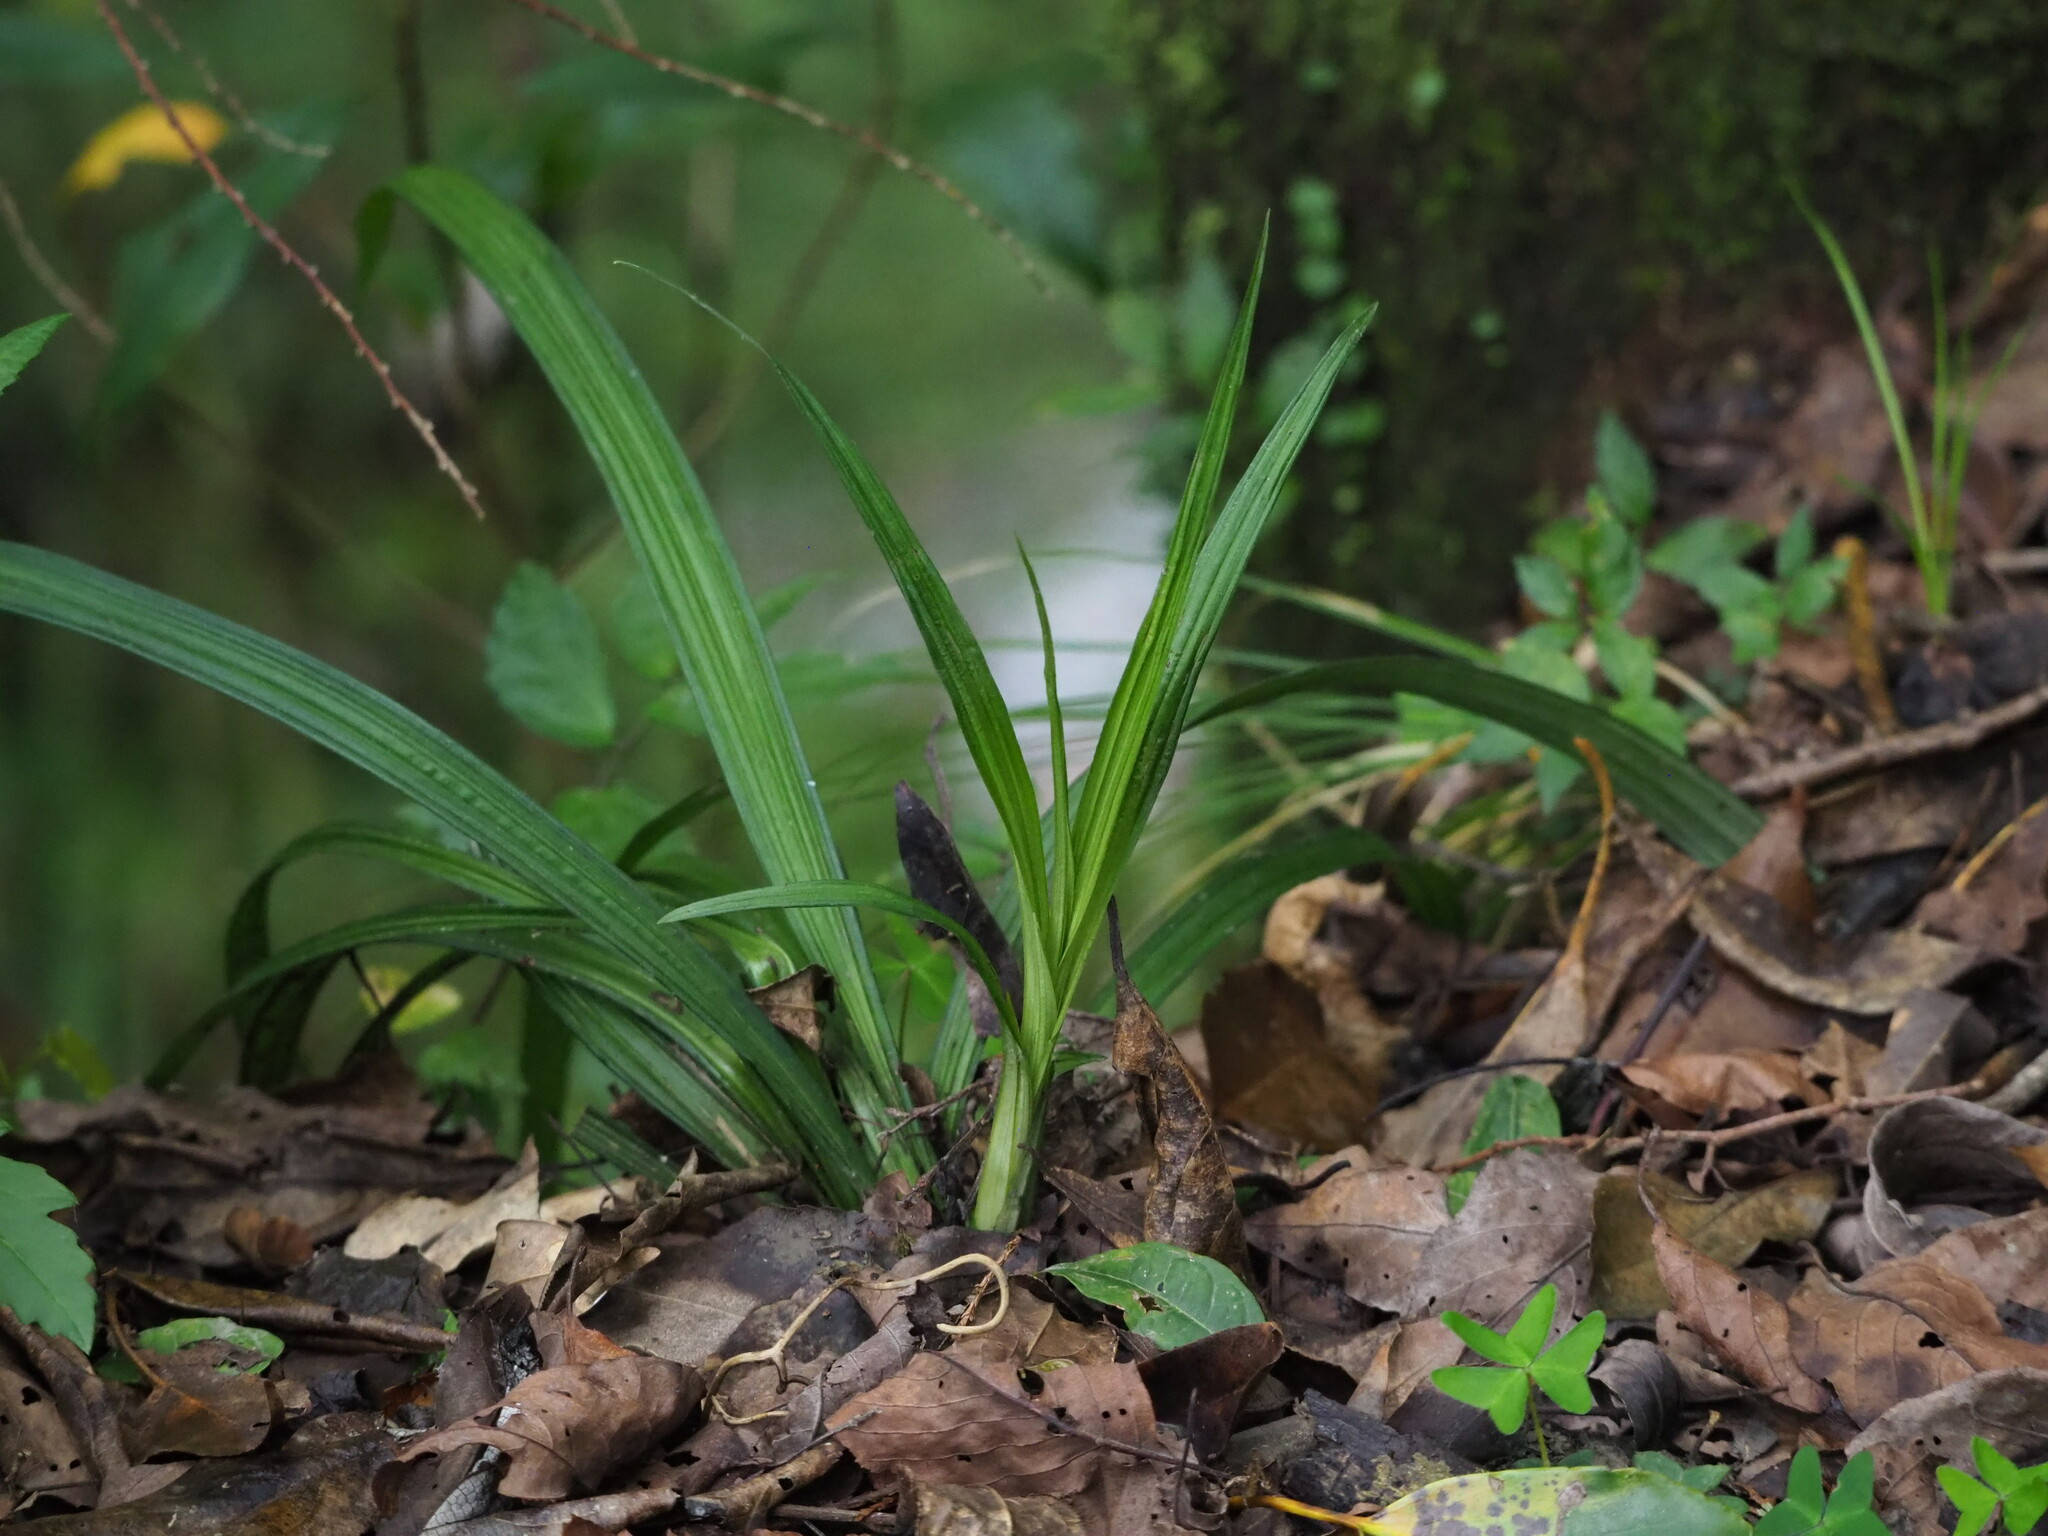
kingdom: Plantae
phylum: Tracheophyta
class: Liliopsida
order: Asparagales
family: Orchidaceae
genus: Calanthe
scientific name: Calanthe davidii
